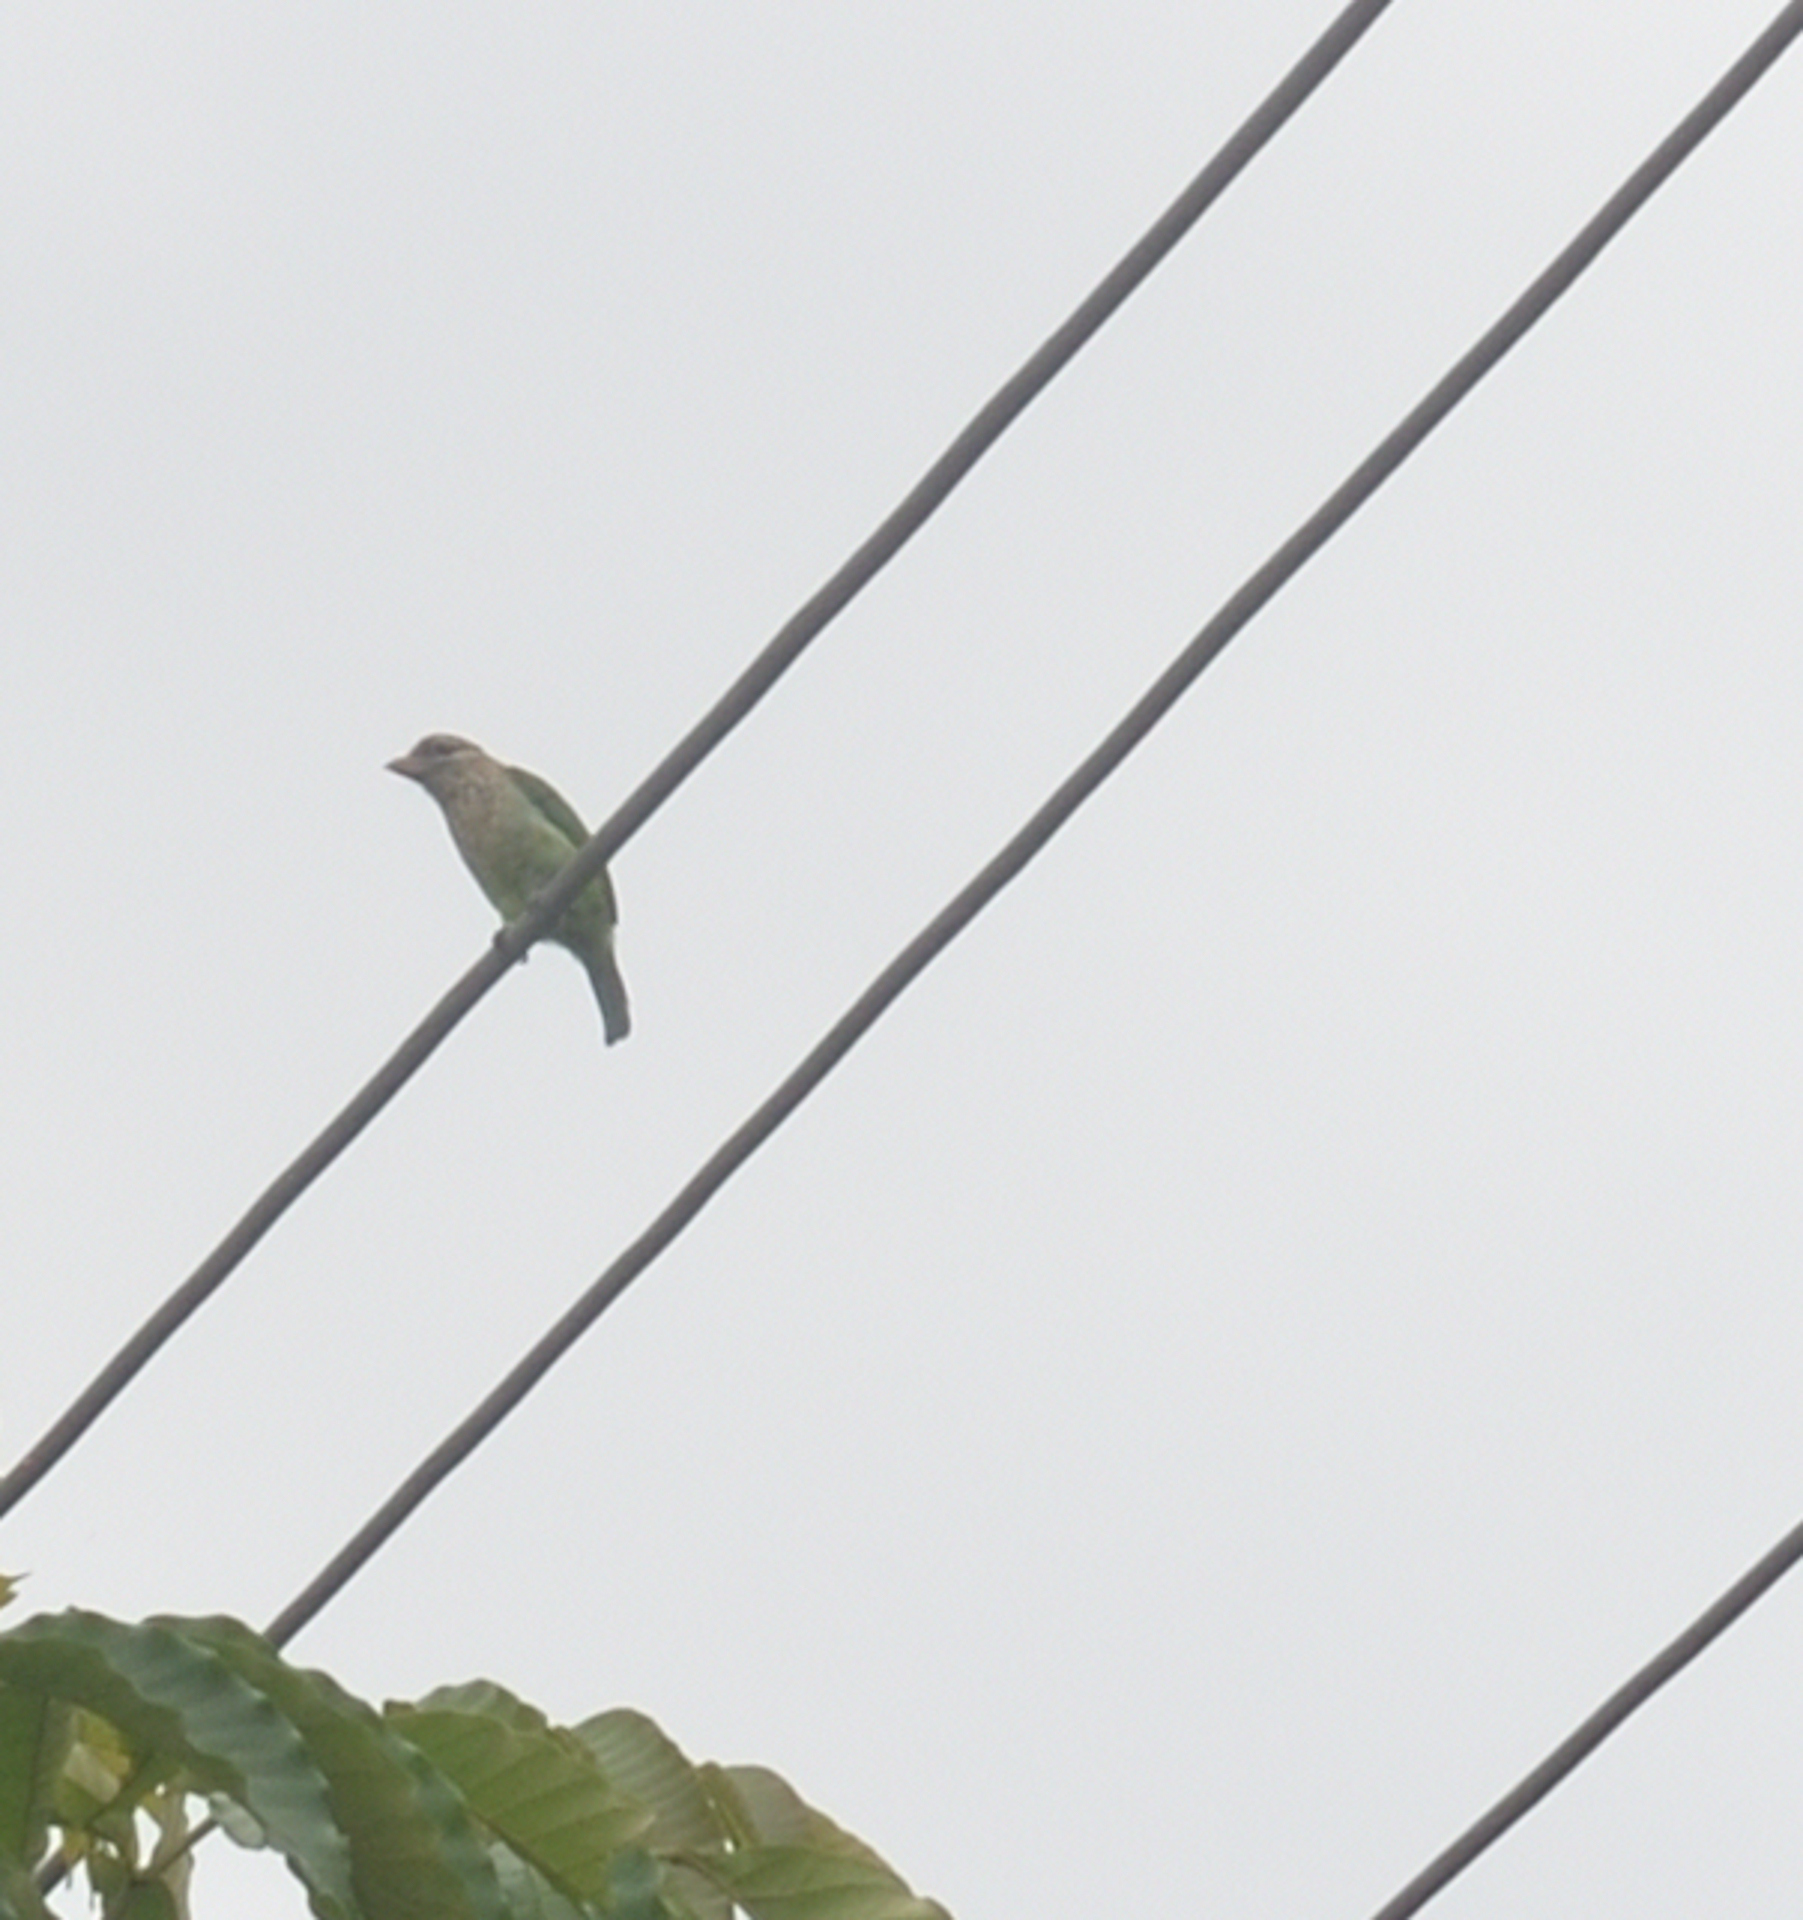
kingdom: Animalia
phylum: Chordata
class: Aves
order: Piciformes
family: Megalaimidae
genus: Psilopogon
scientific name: Psilopogon viridis
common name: White-cheeked barbet
